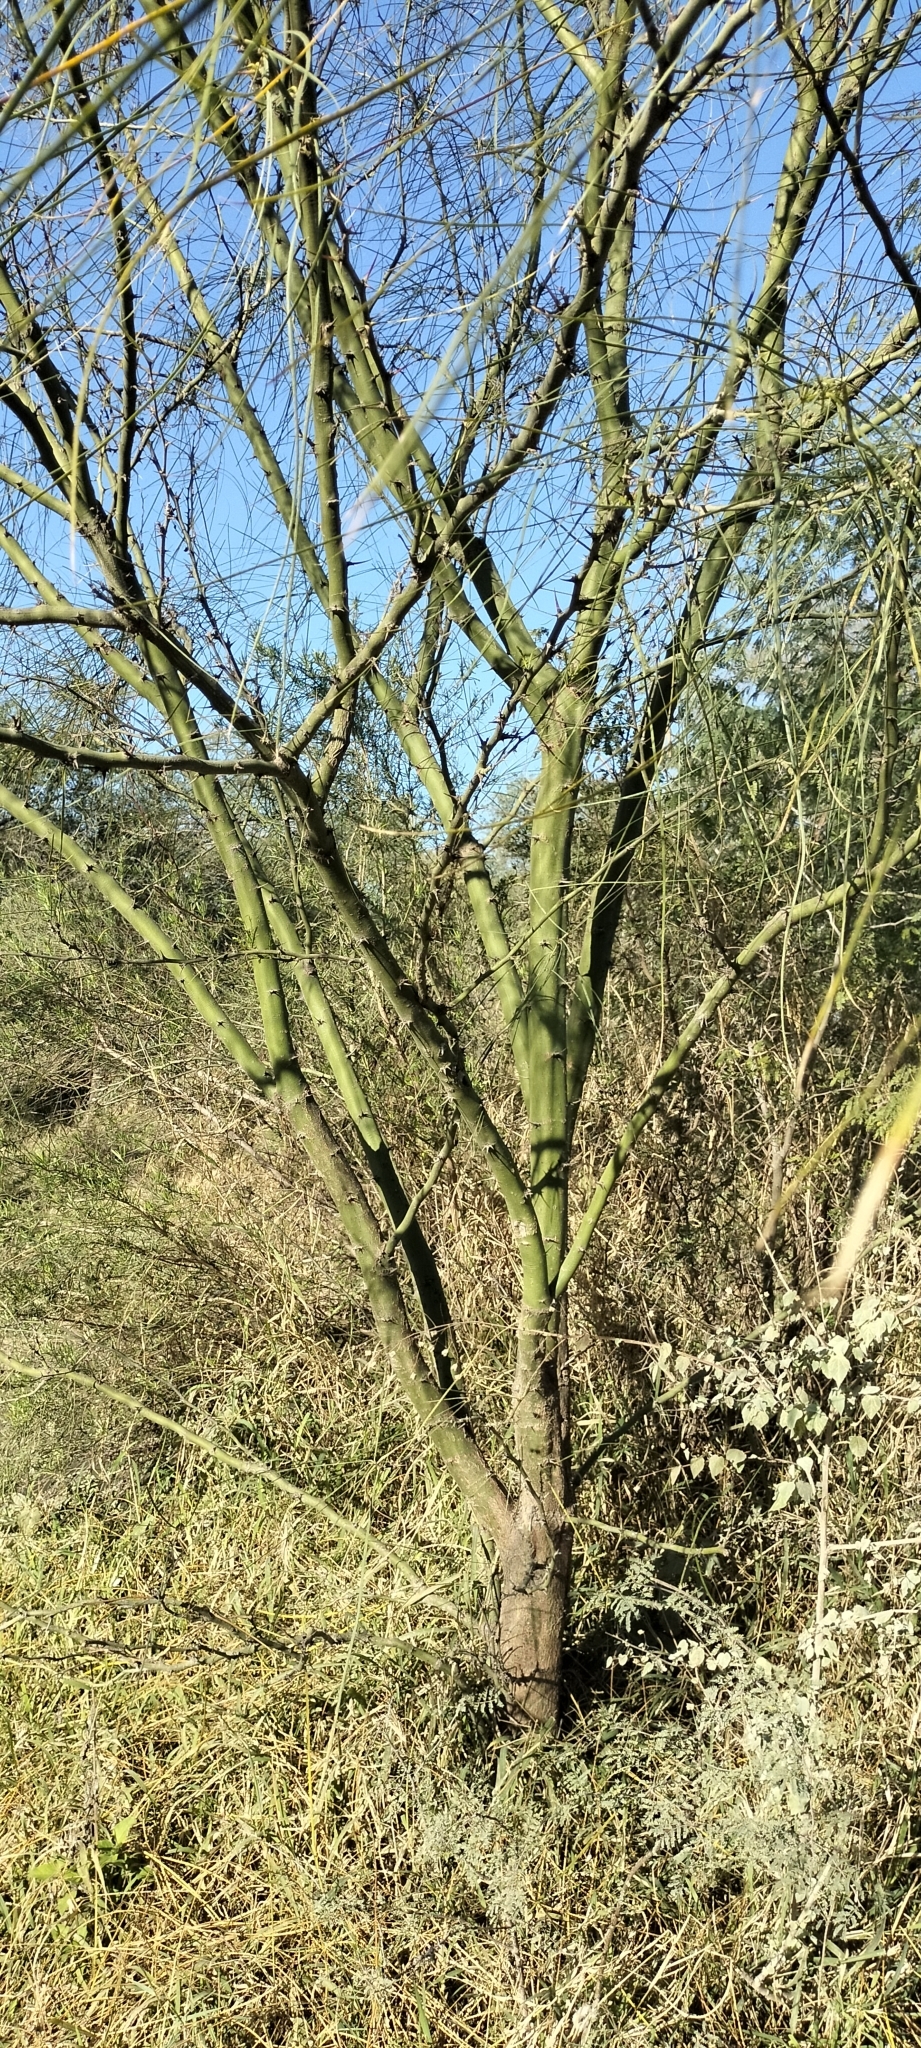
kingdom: Plantae
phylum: Tracheophyta
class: Magnoliopsida
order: Fabales
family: Fabaceae
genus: Parkinsonia
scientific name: Parkinsonia aculeata
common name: Jerusalem thorn
